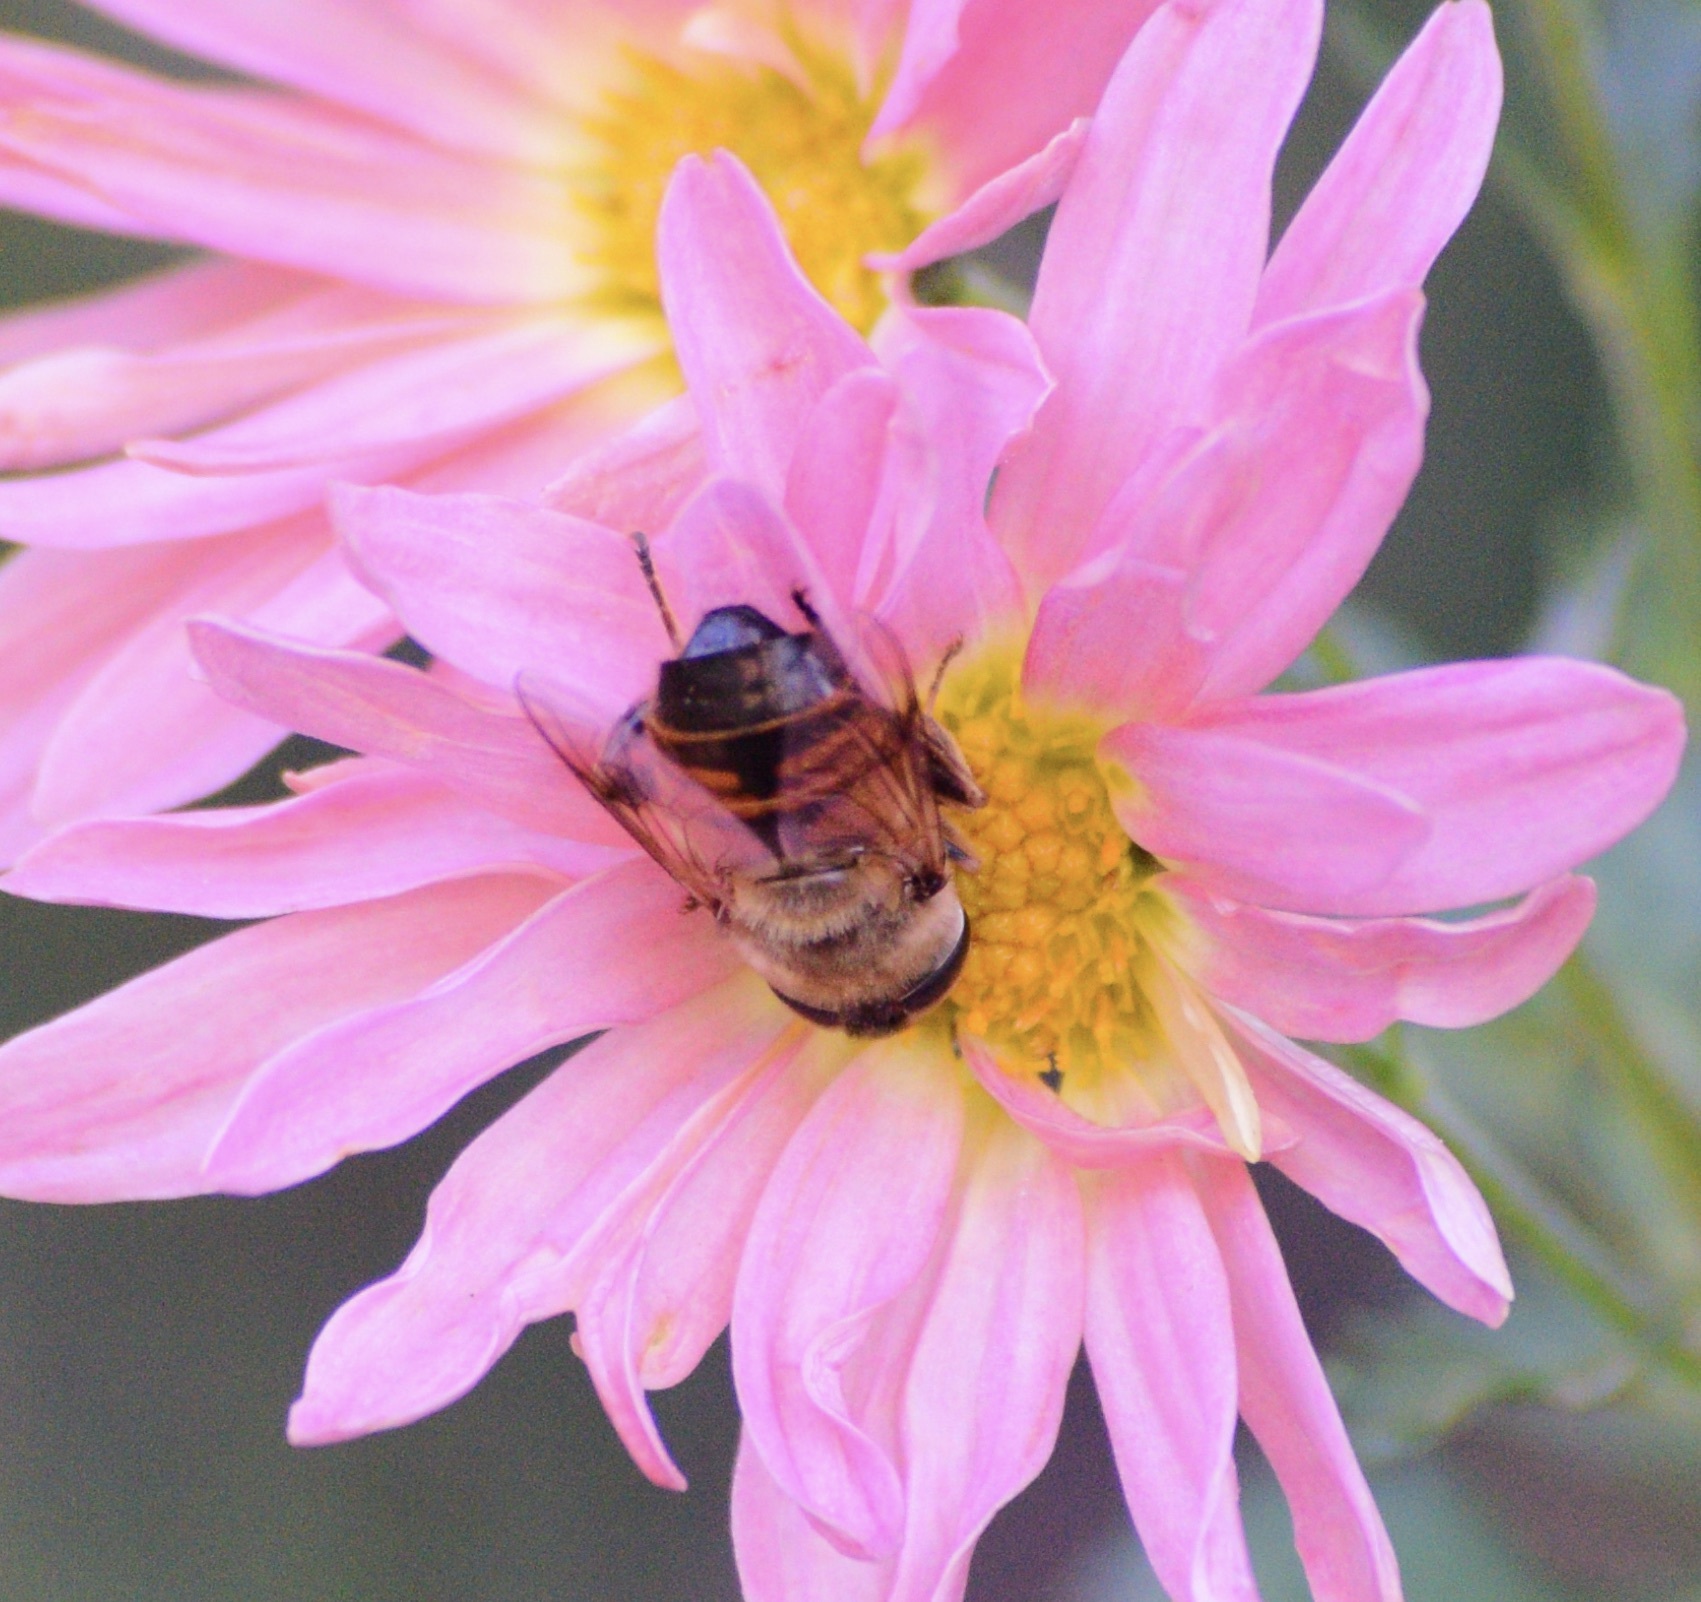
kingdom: Animalia
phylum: Arthropoda
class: Insecta
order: Diptera
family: Syrphidae
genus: Eristalis
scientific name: Eristalis tenax
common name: Drone fly
